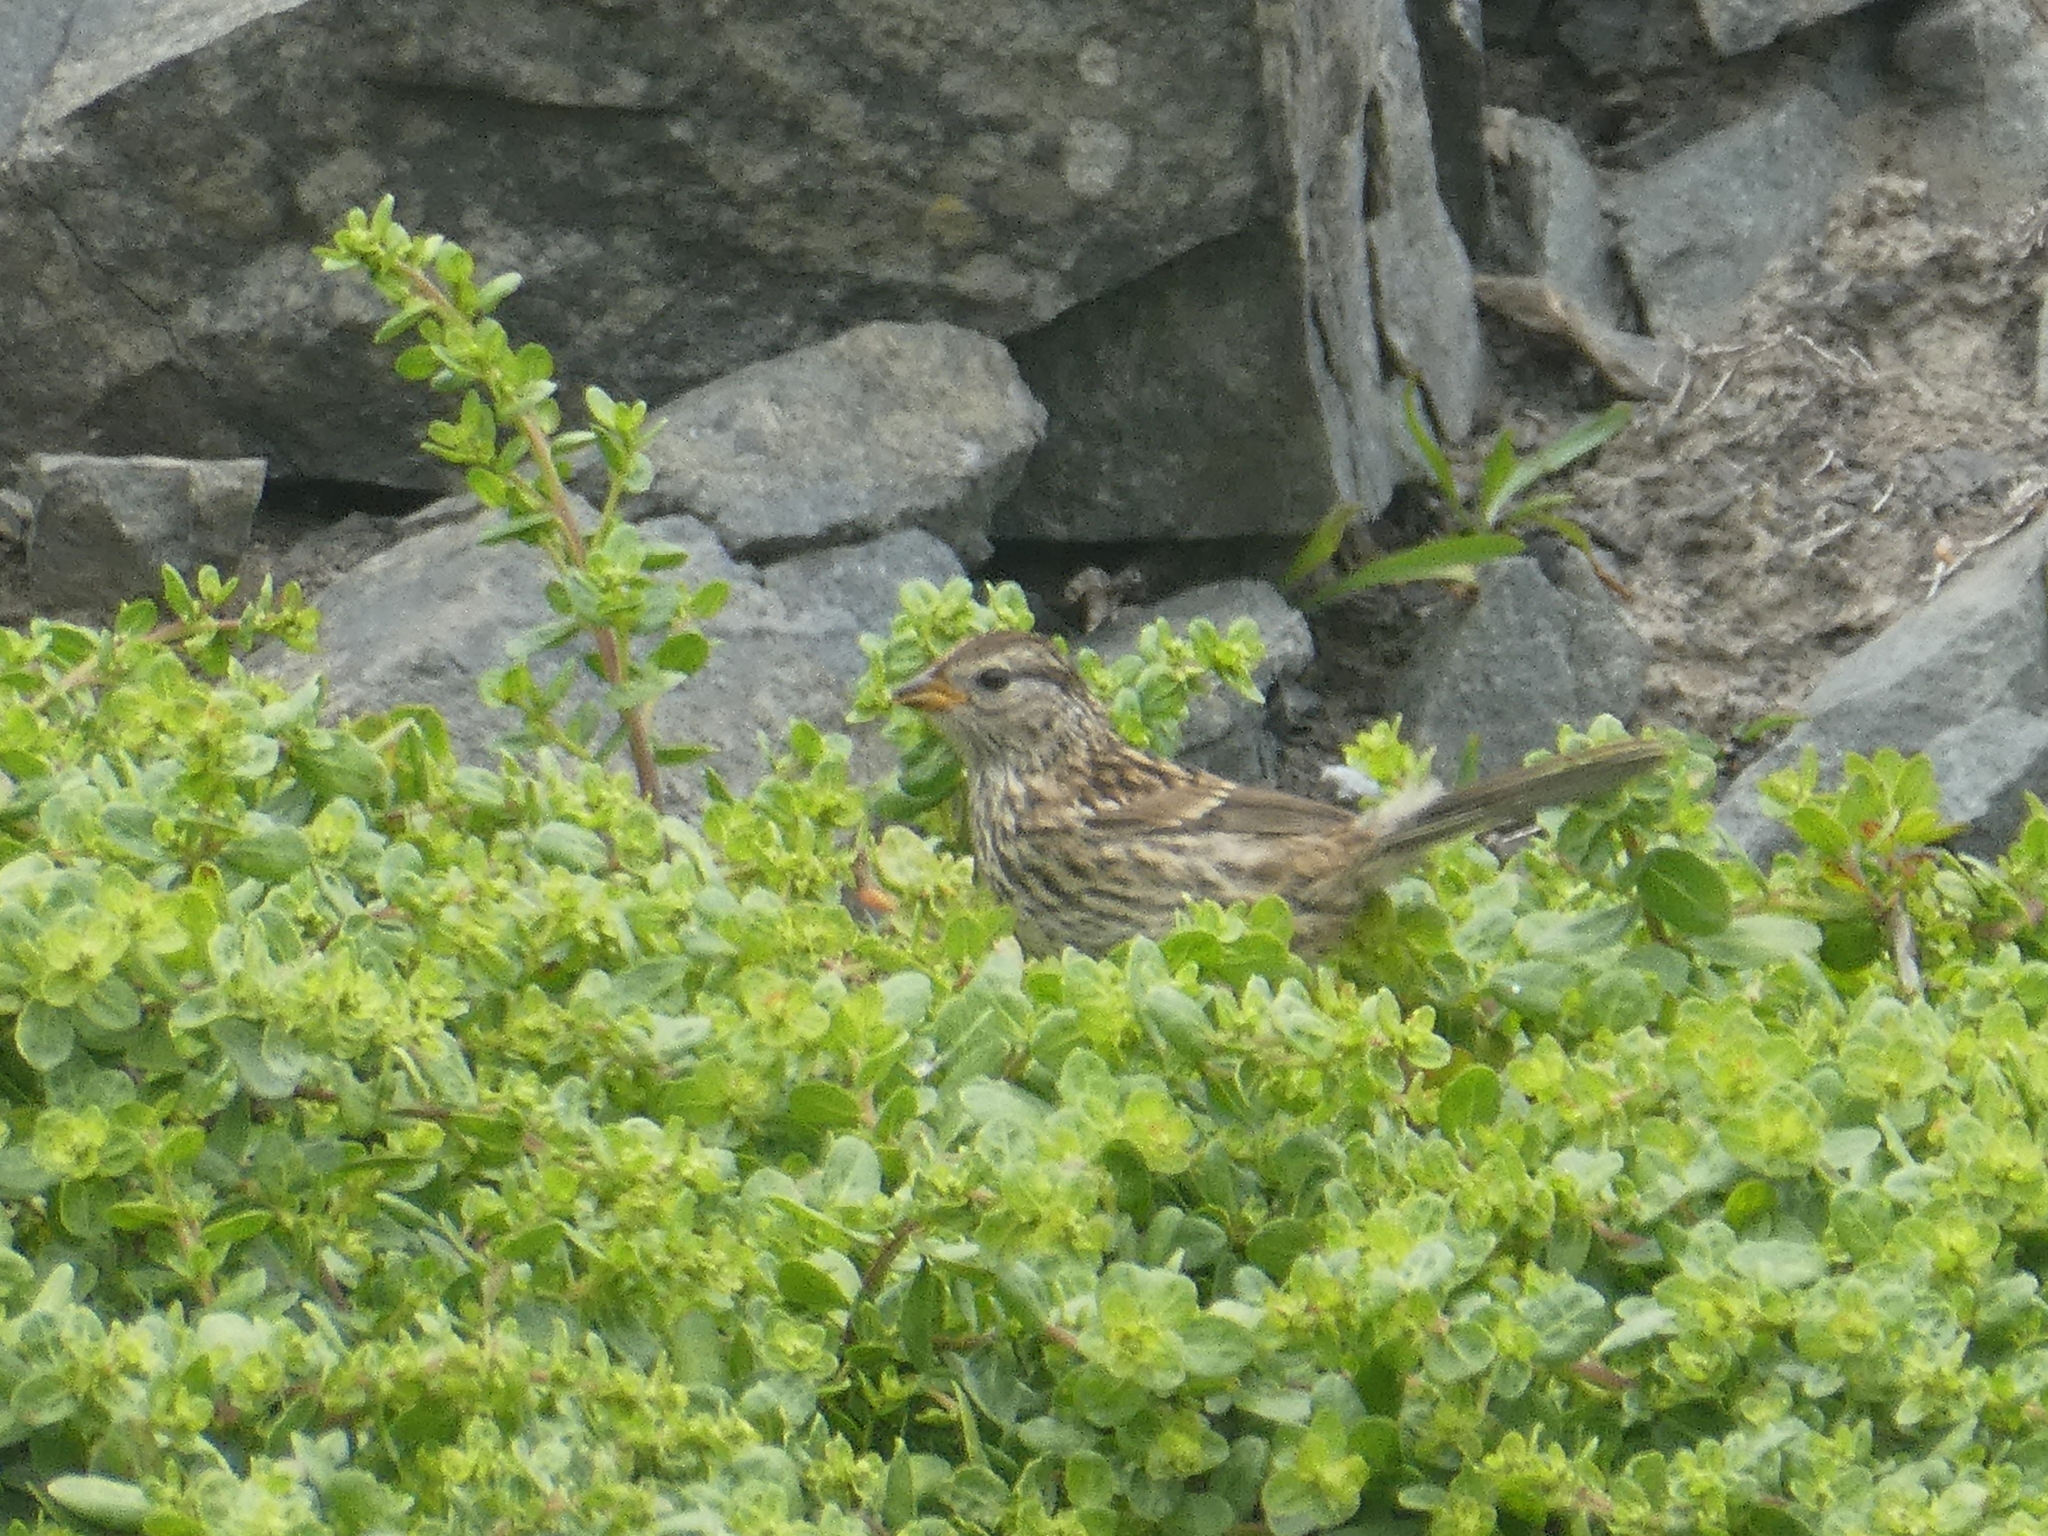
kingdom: Animalia
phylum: Chordata
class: Aves
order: Passeriformes
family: Passerellidae
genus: Zonotrichia
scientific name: Zonotrichia leucophrys
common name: White-crowned sparrow
